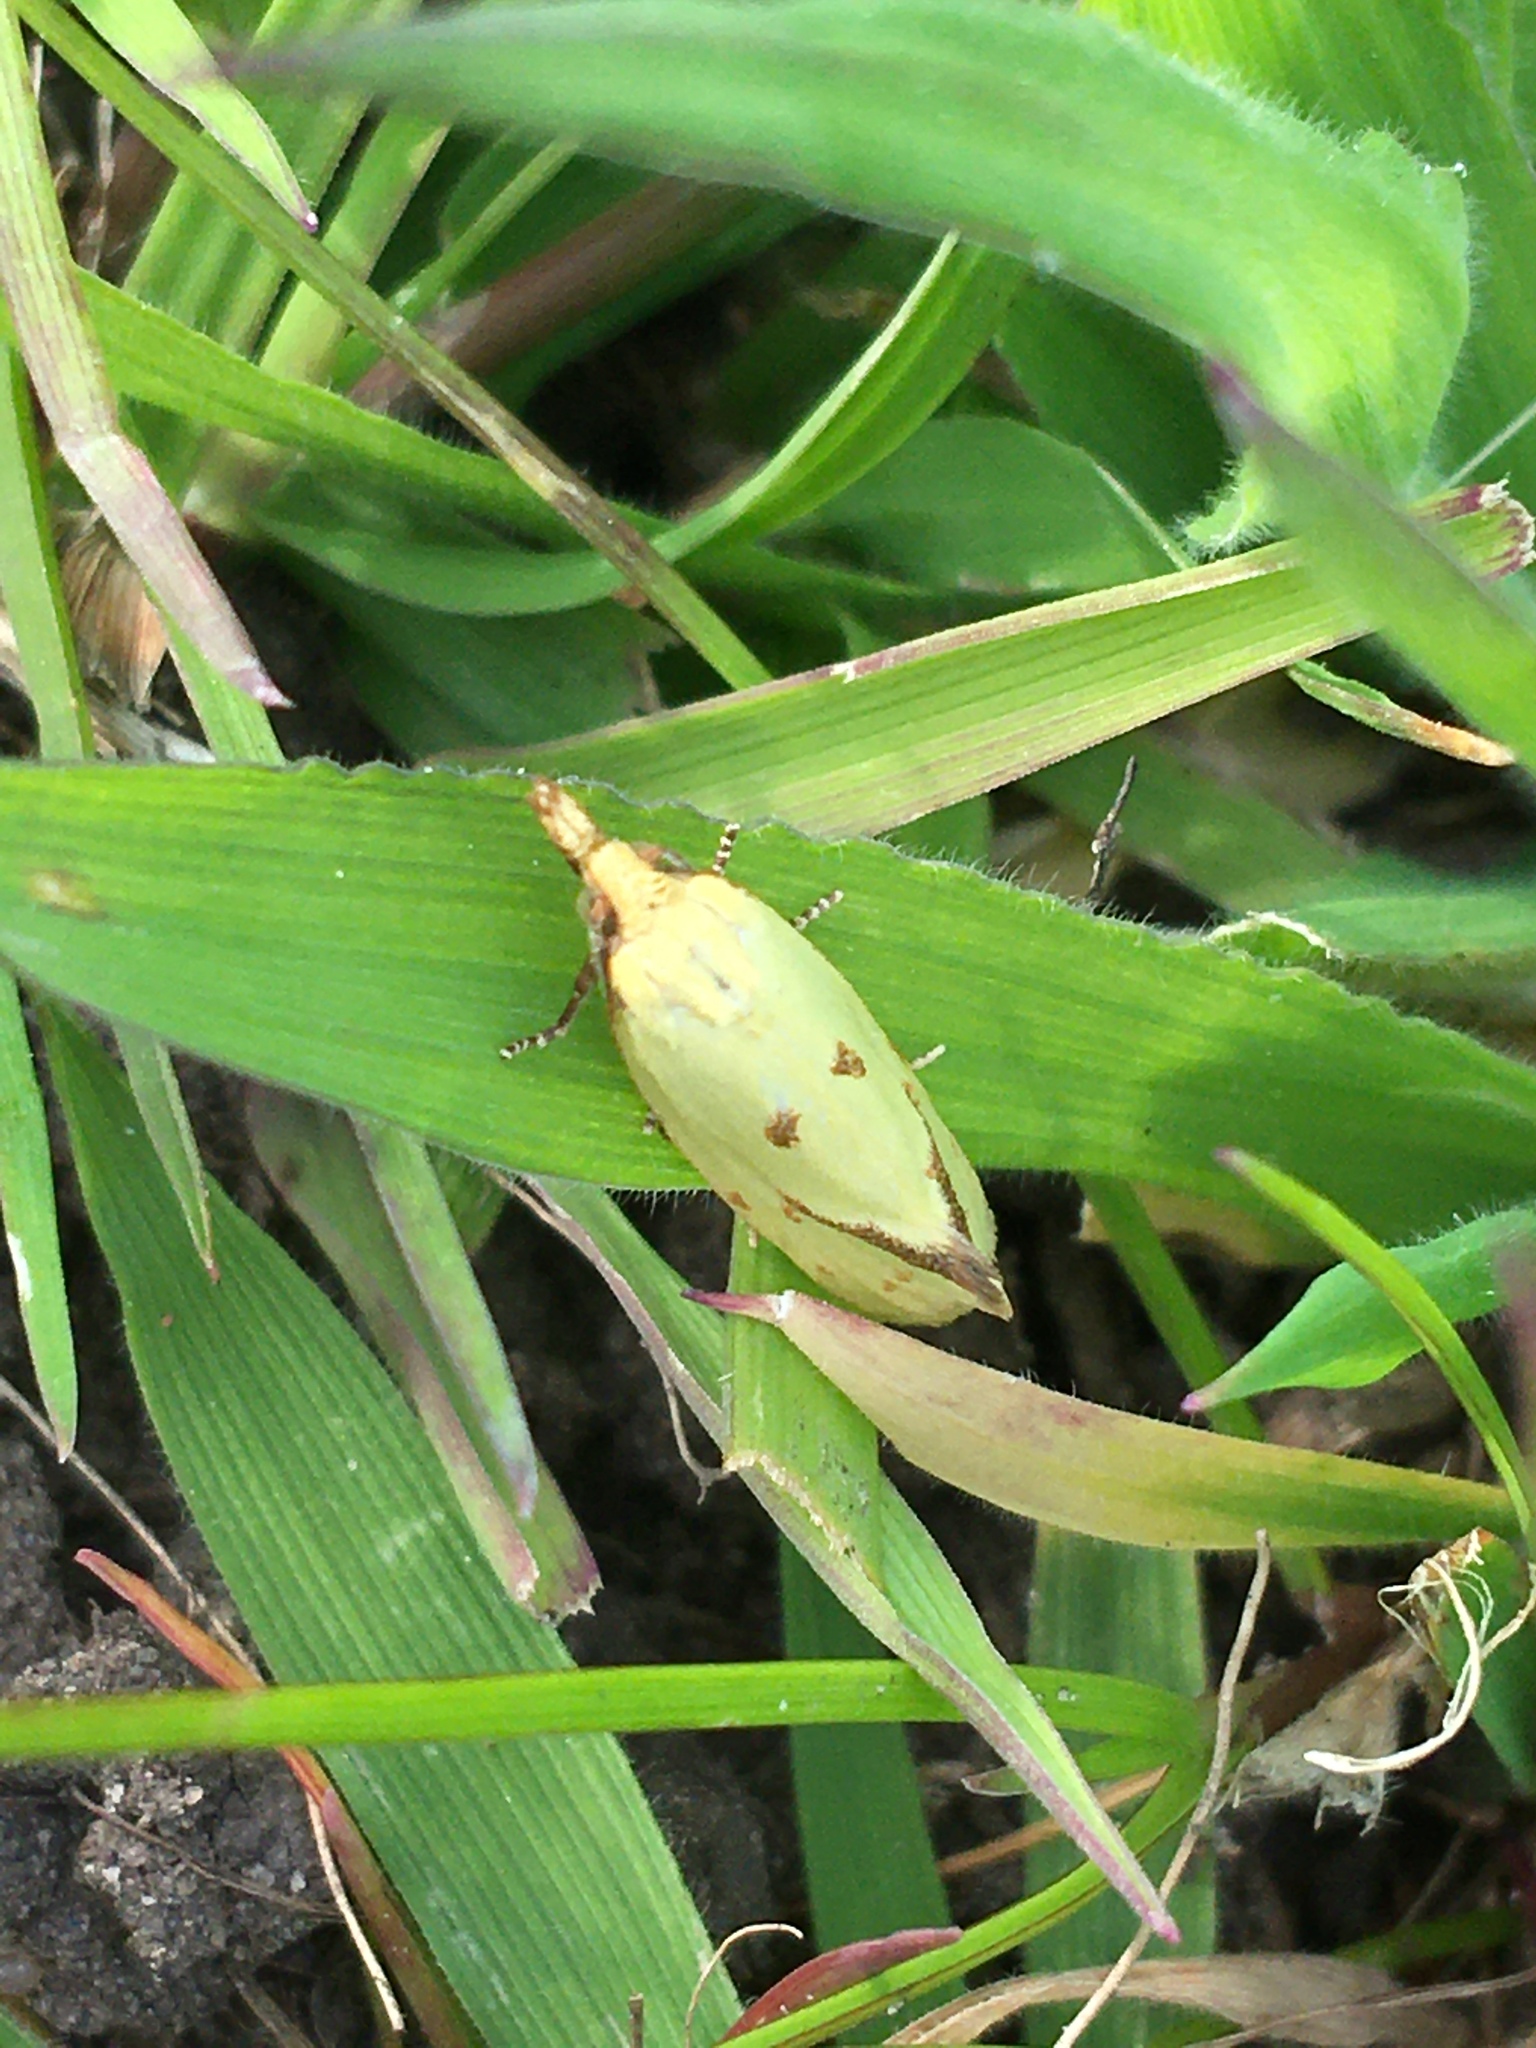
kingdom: Animalia
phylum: Arthropoda
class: Insecta
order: Lepidoptera
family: Tortricidae
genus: Agapeta
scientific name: Agapeta hamana
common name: Common yellow conch
